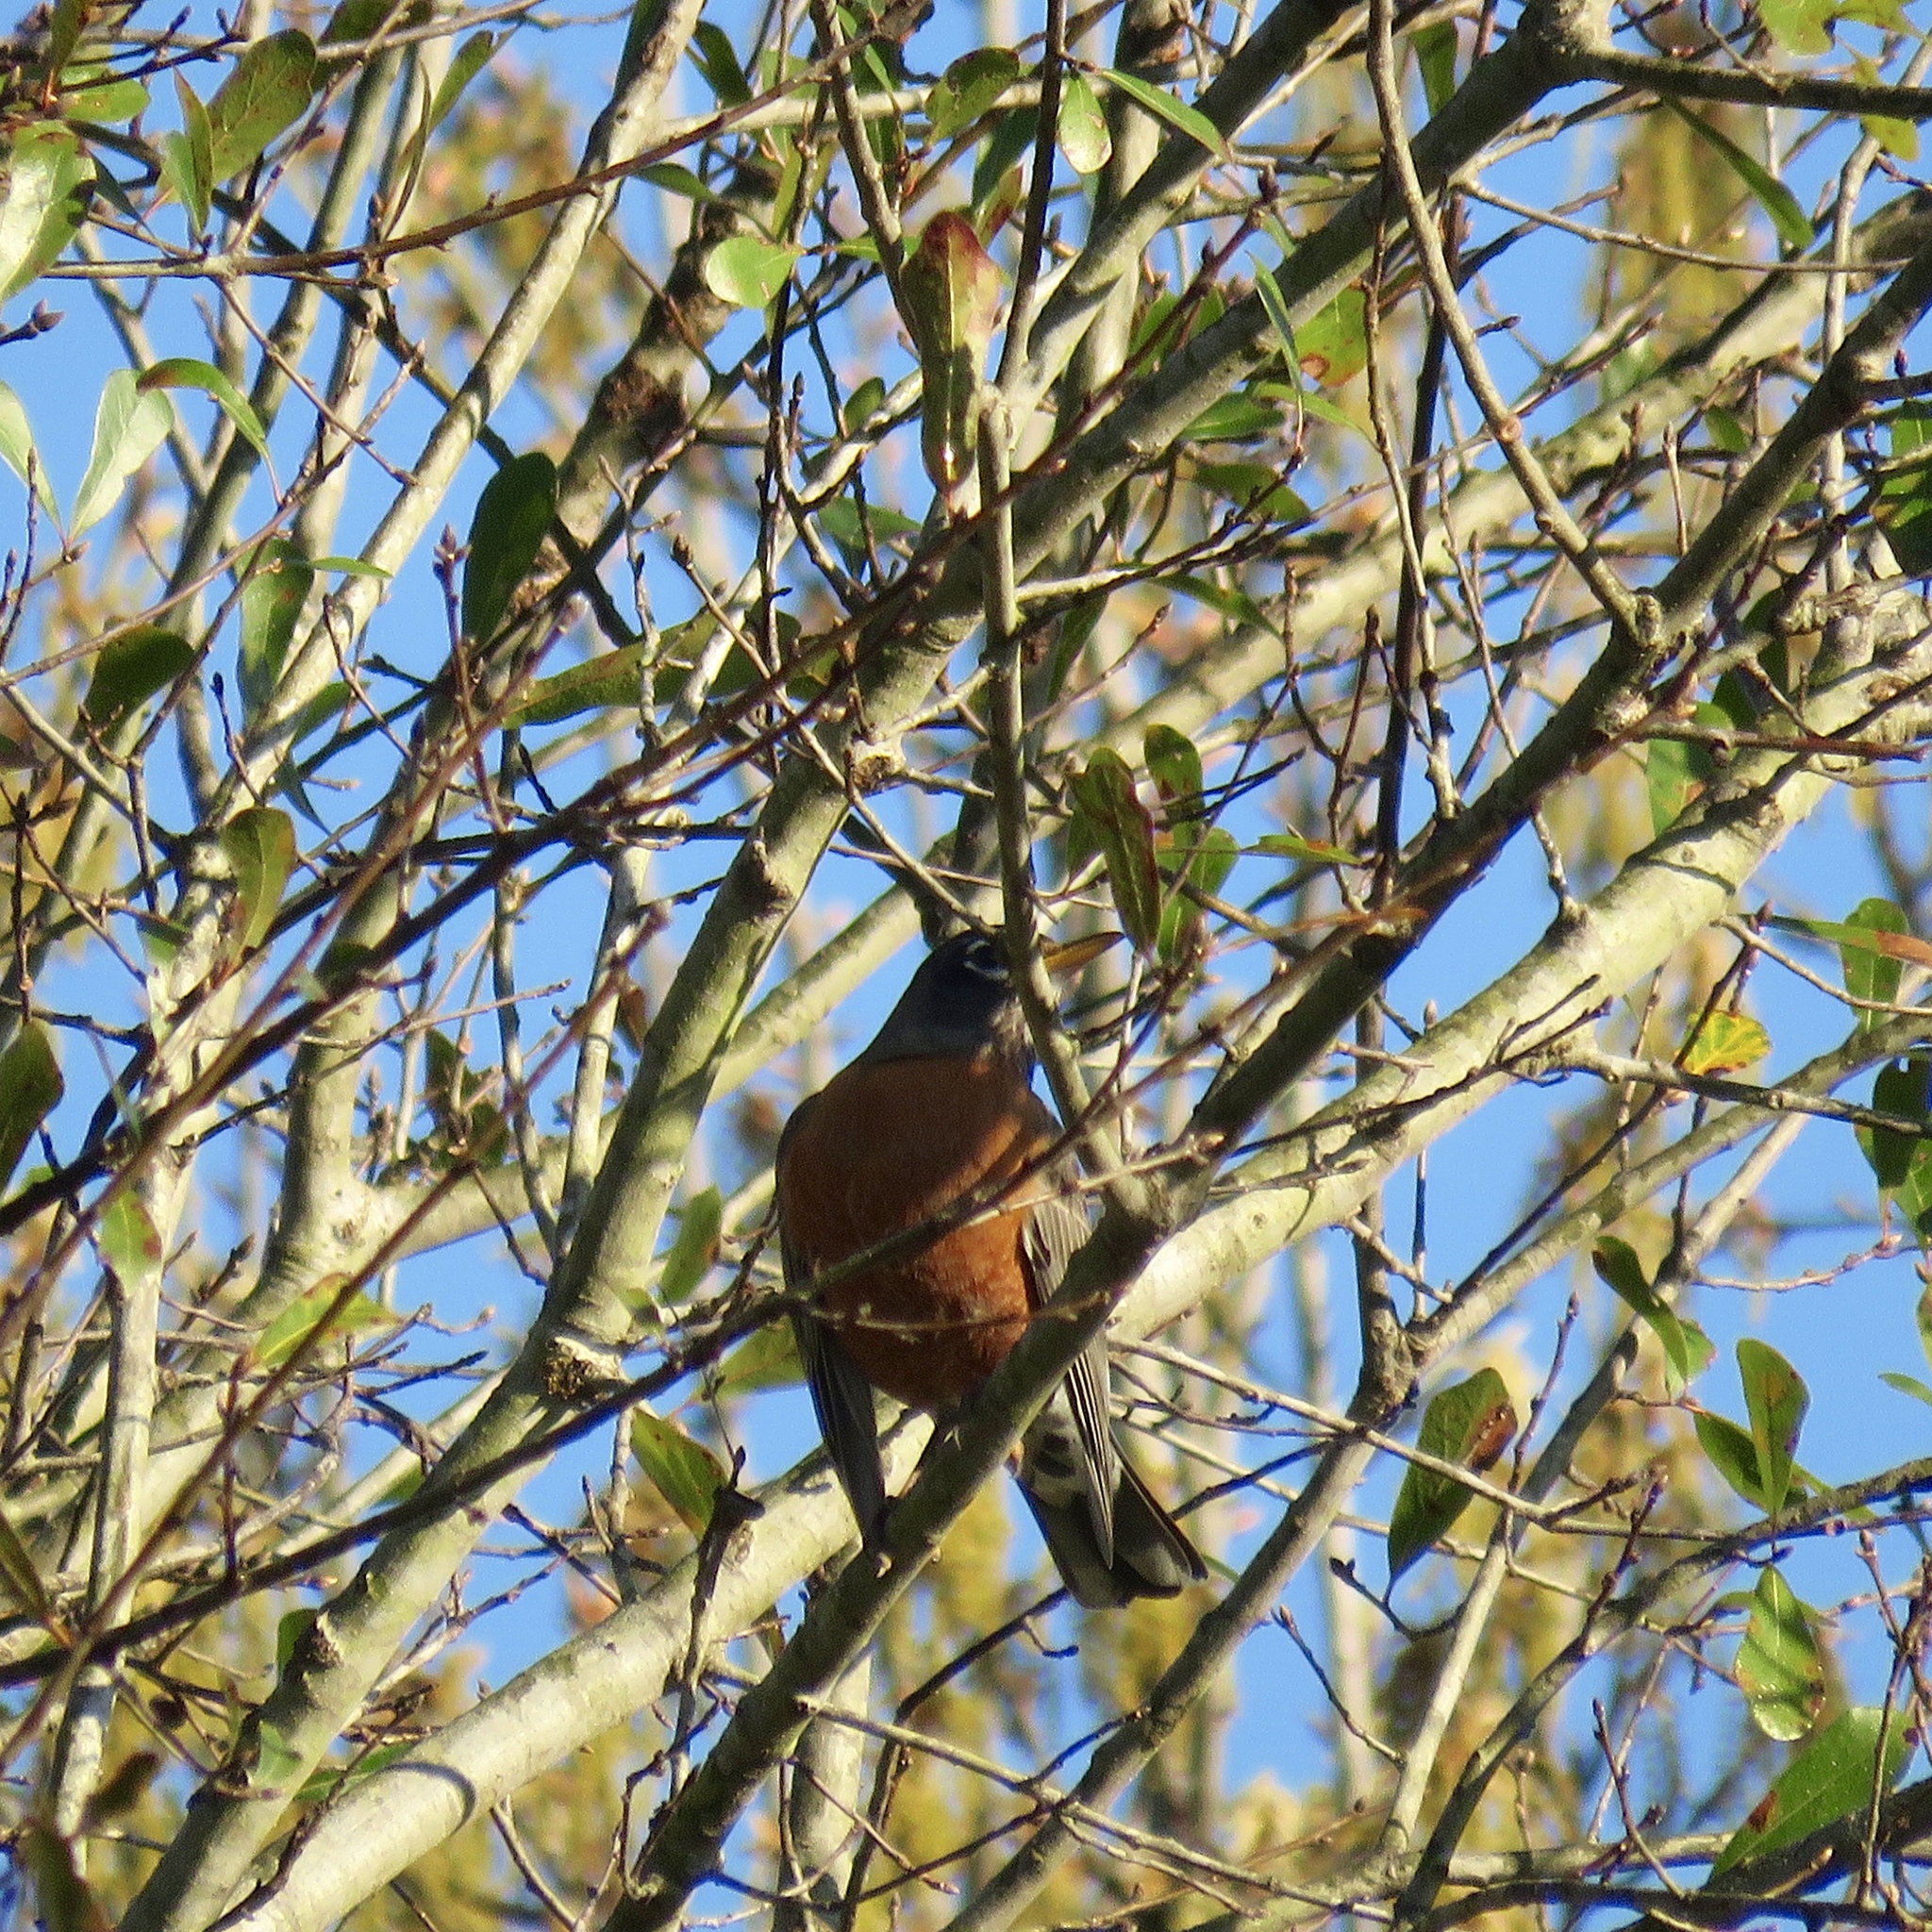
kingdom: Animalia
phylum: Chordata
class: Aves
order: Passeriformes
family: Turdidae
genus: Turdus
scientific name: Turdus migratorius
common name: American robin
